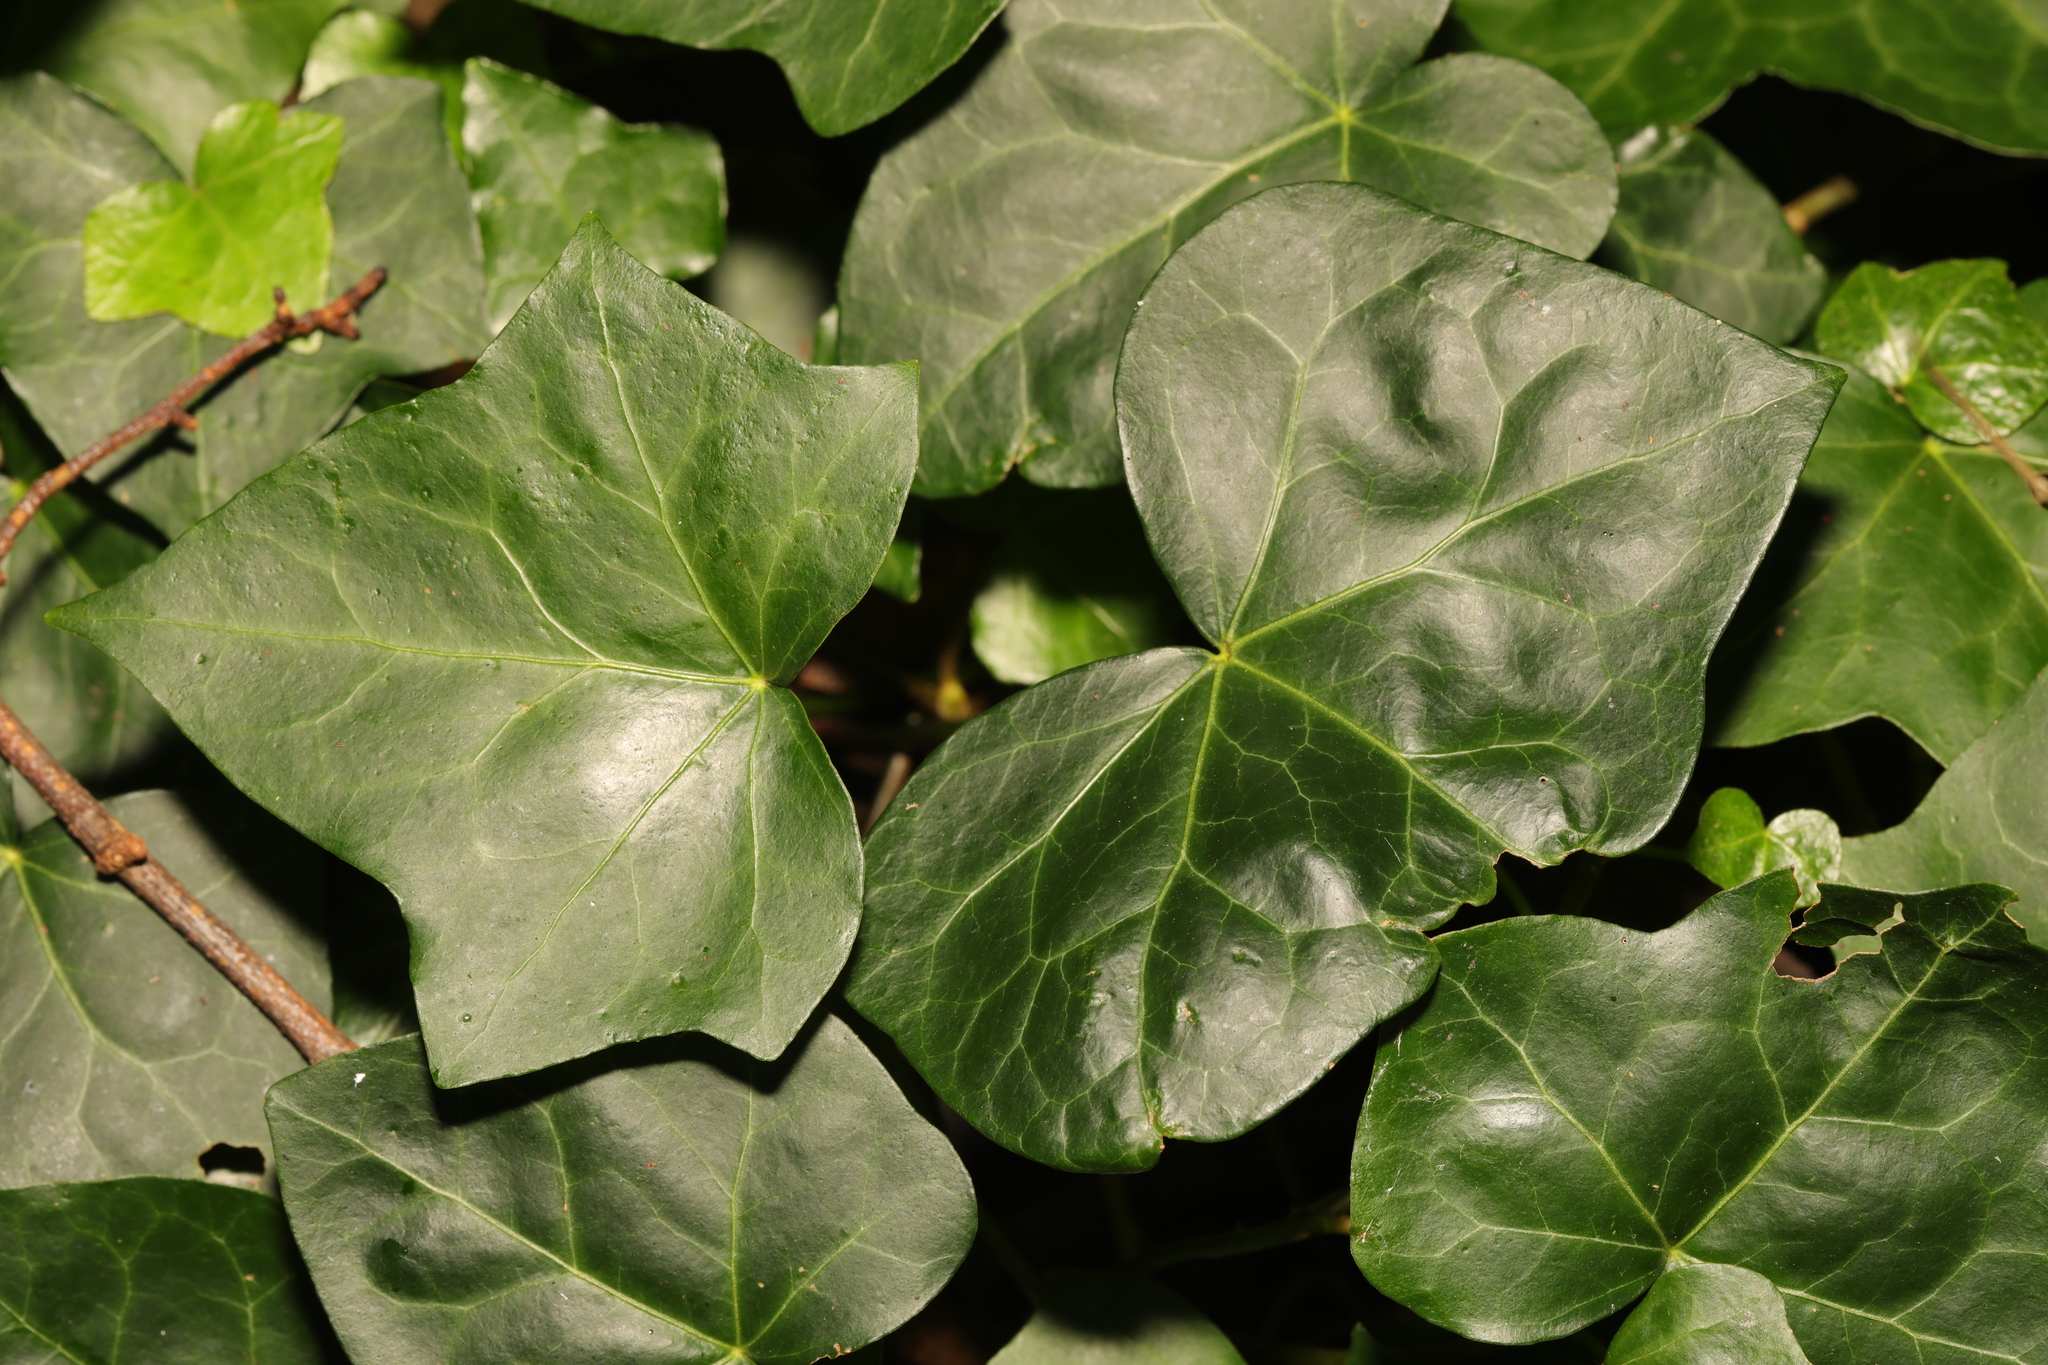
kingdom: Plantae
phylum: Tracheophyta
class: Magnoliopsida
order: Apiales
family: Araliaceae
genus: Hedera
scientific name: Hedera helix
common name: Ivy
